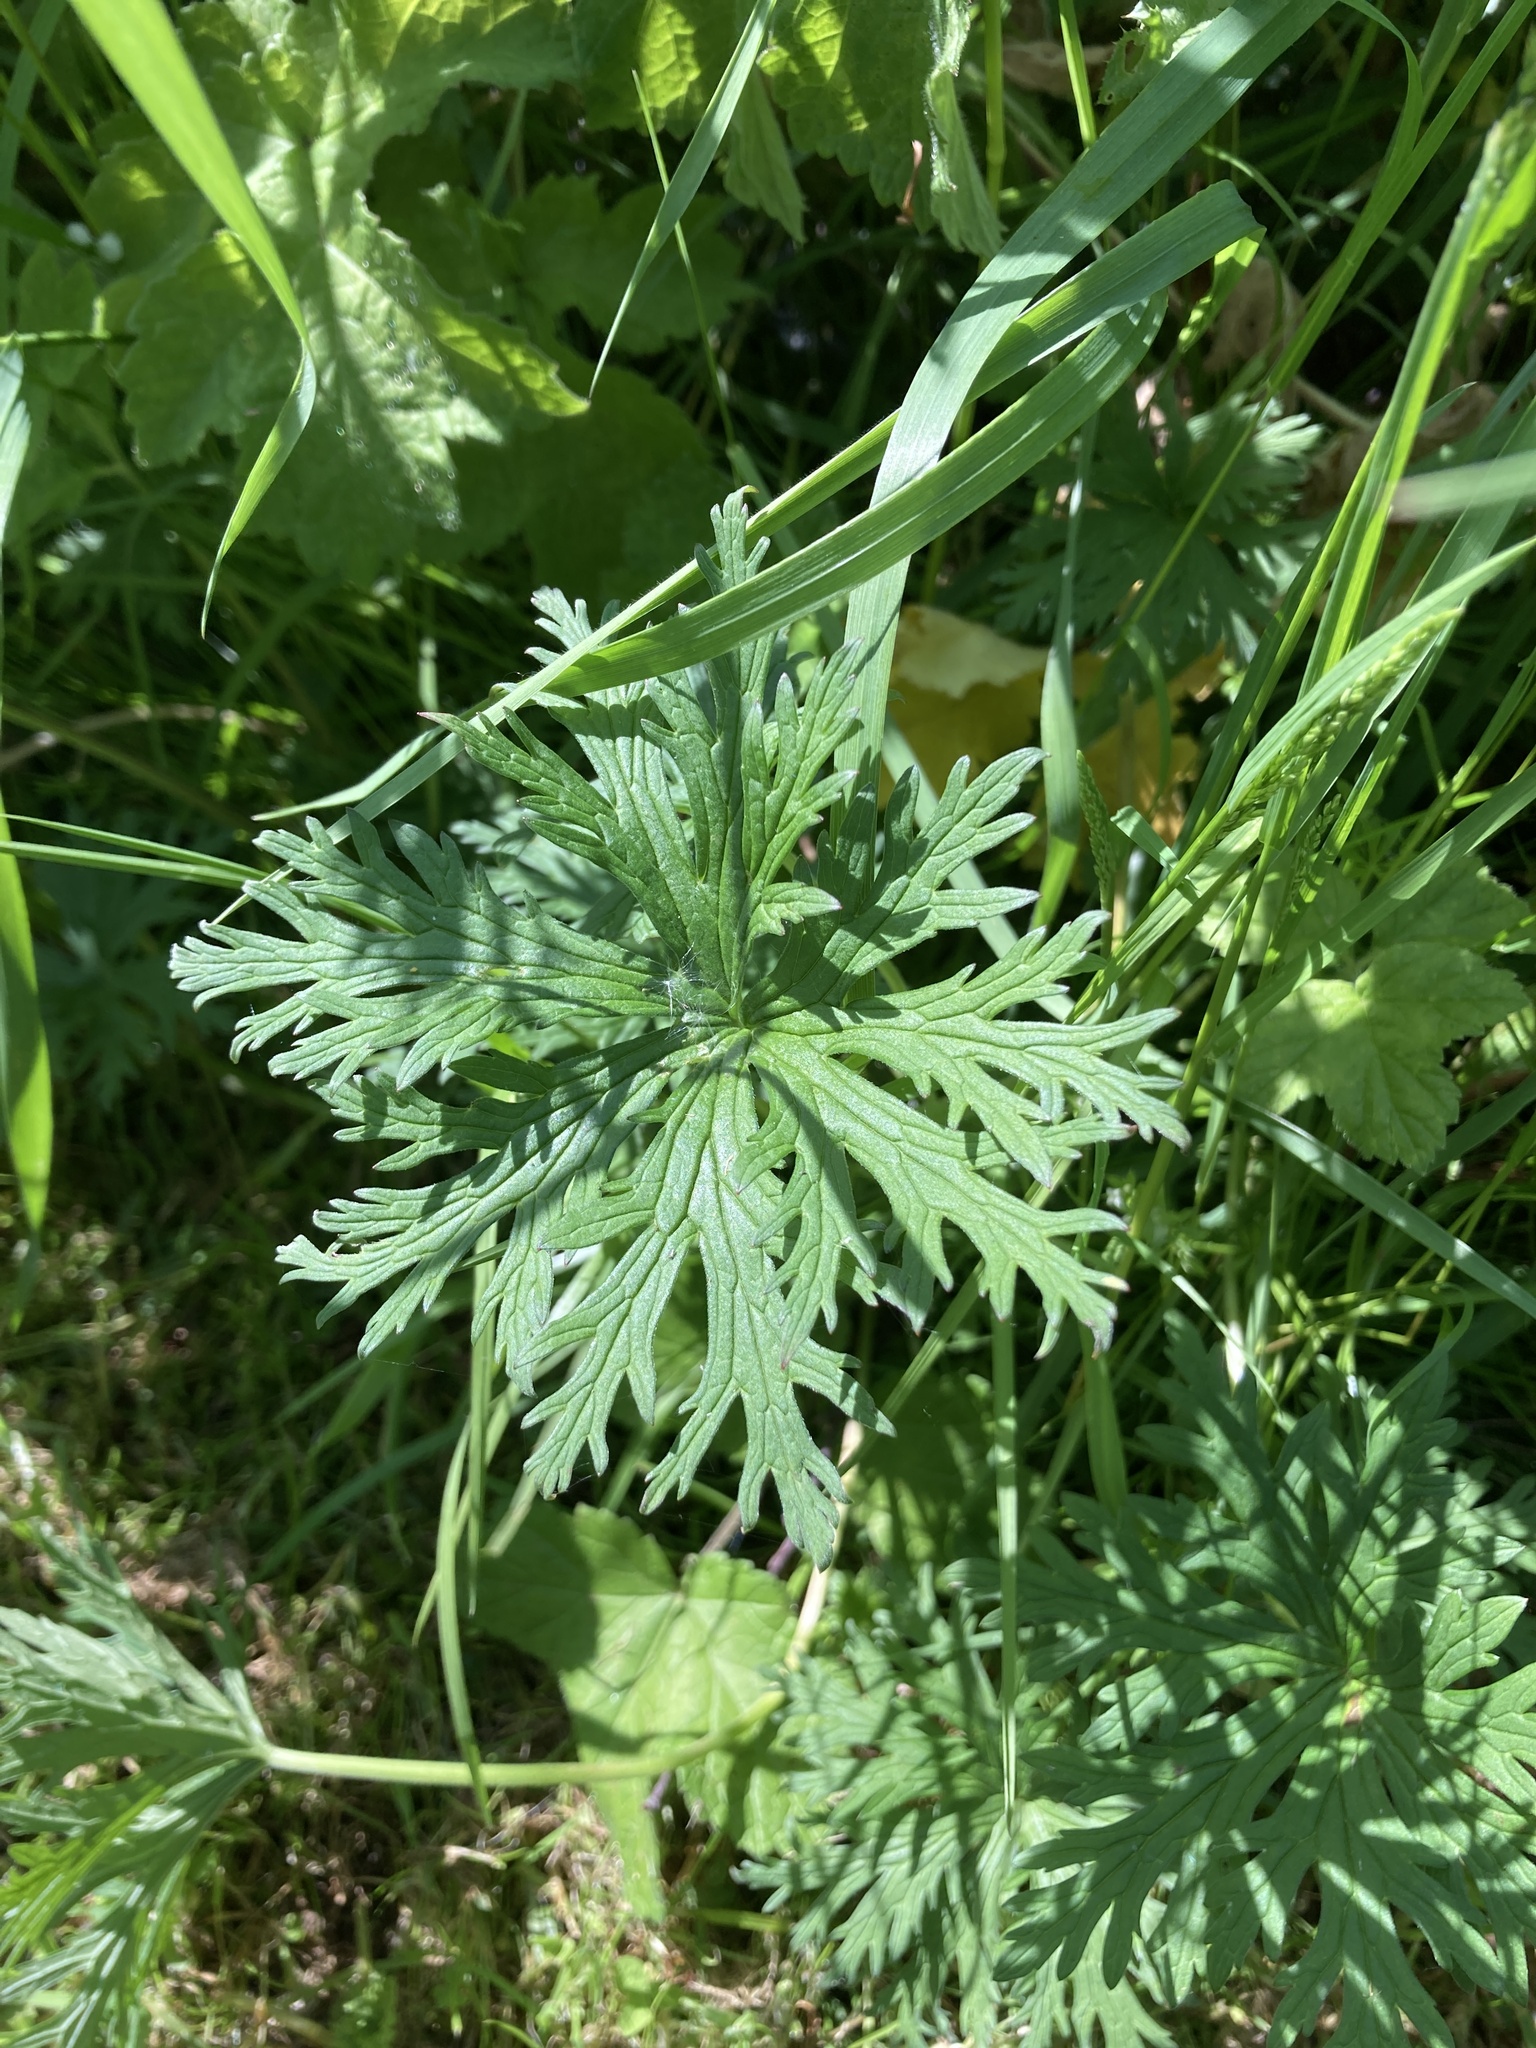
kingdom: Plantae
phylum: Tracheophyta
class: Magnoliopsida
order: Geraniales
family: Geraniaceae
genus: Geranium
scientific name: Geranium pratense
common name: Meadow crane's-bill
